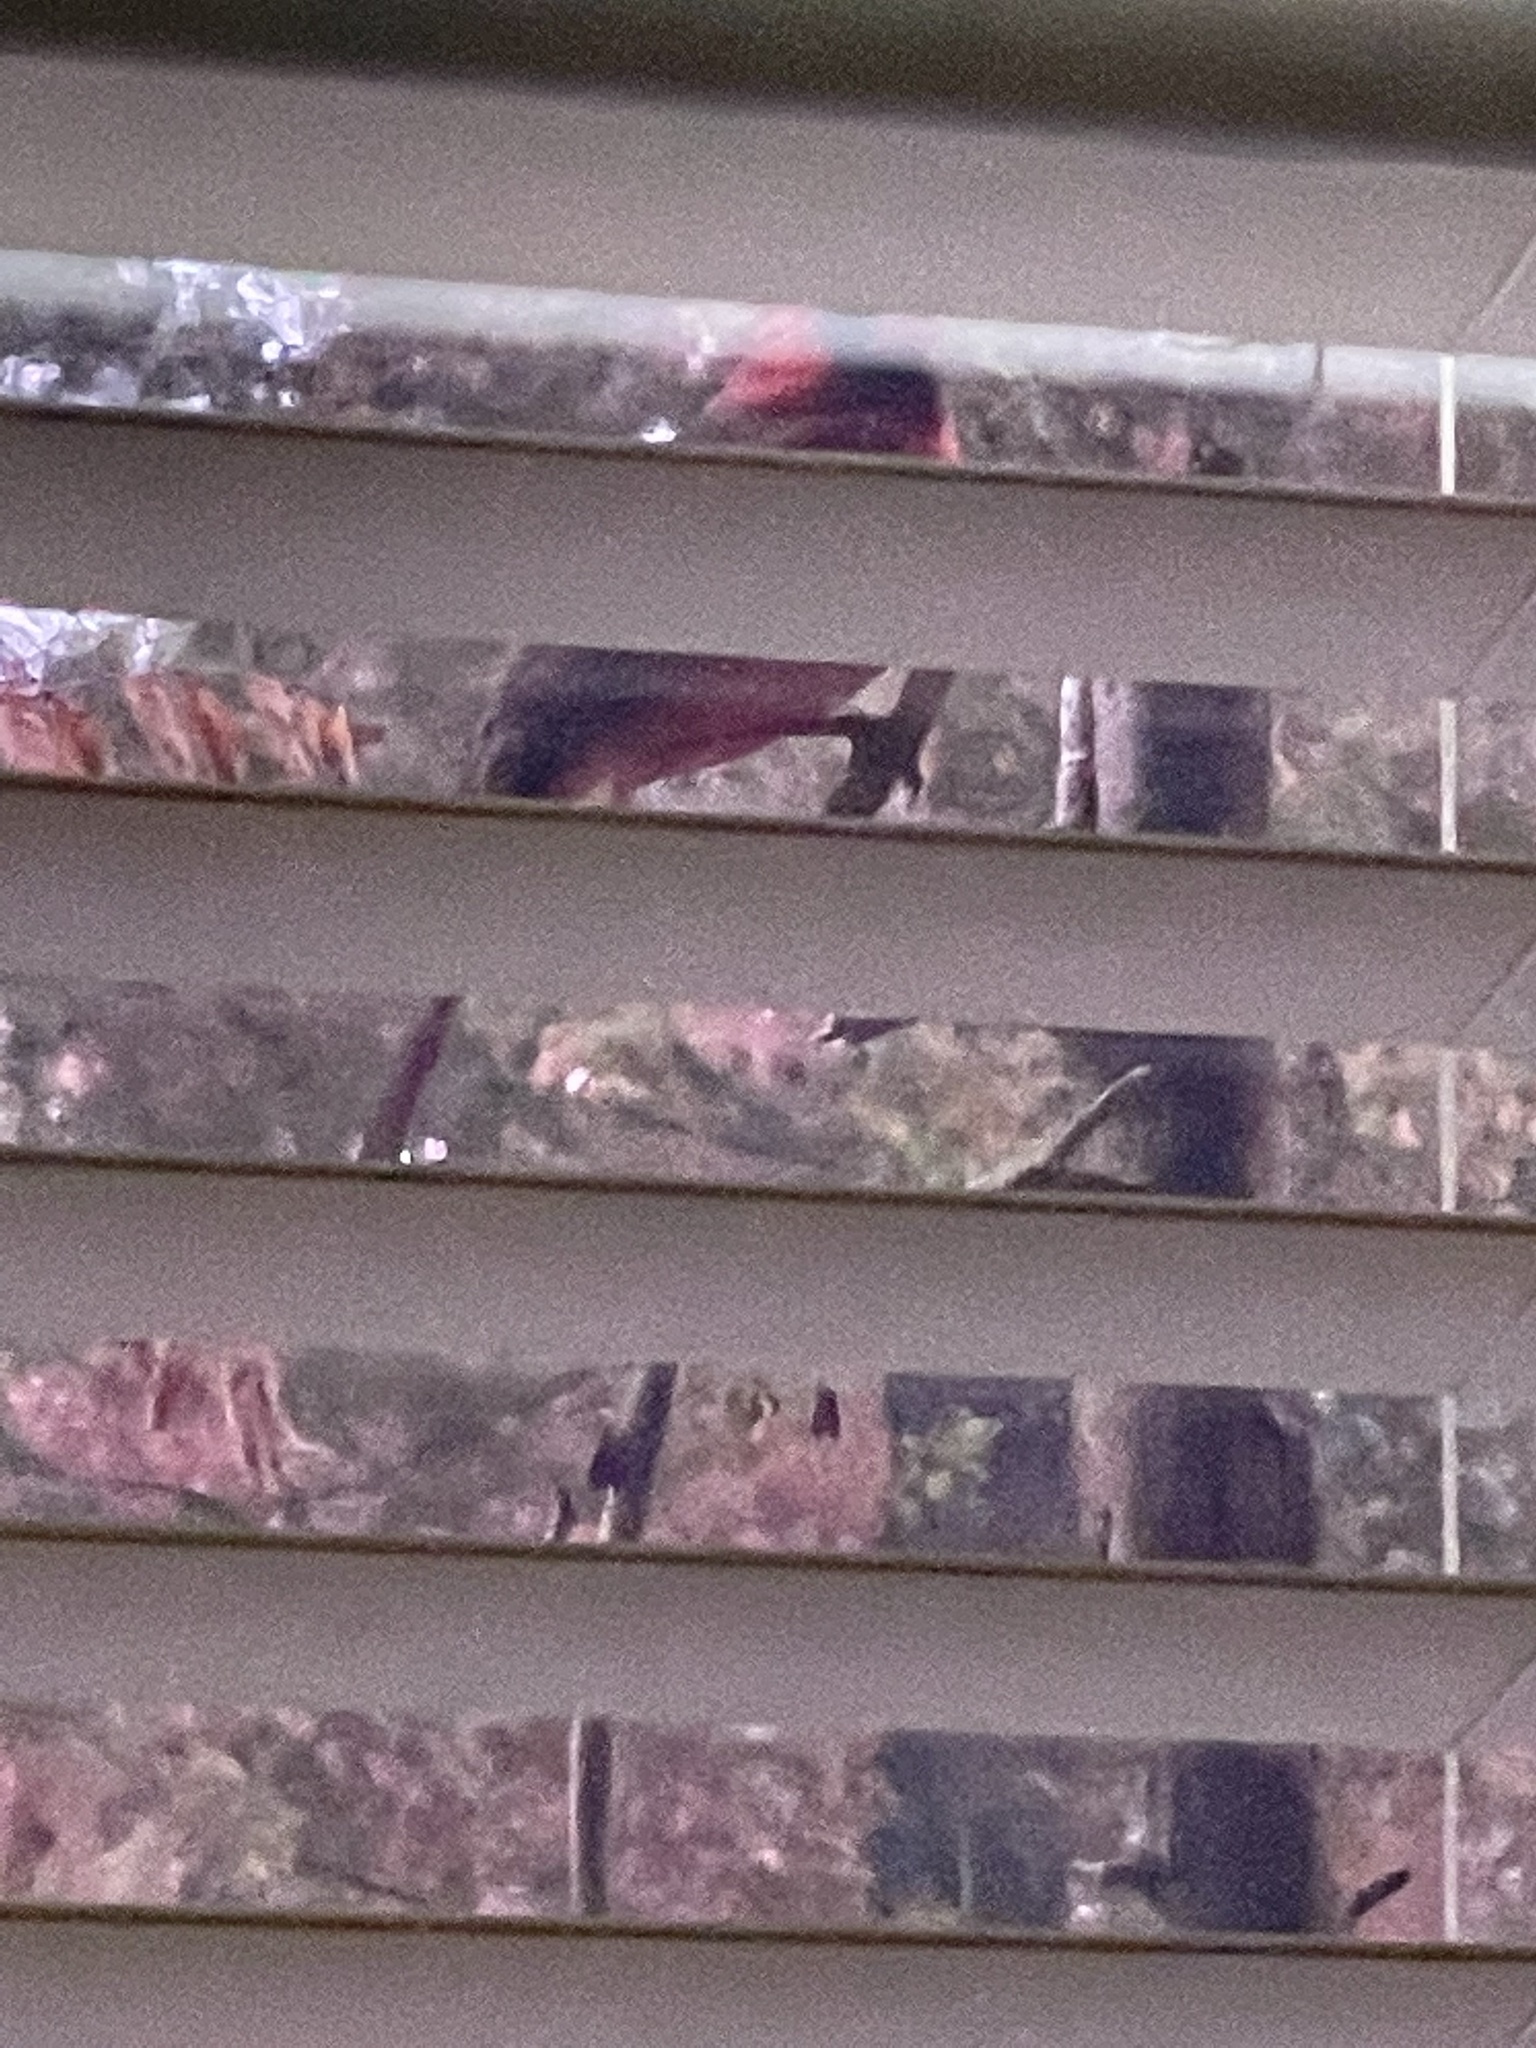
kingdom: Animalia
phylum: Chordata
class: Aves
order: Passeriformes
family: Cardinalidae
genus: Cardinalis
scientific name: Cardinalis cardinalis
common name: Northern cardinal
